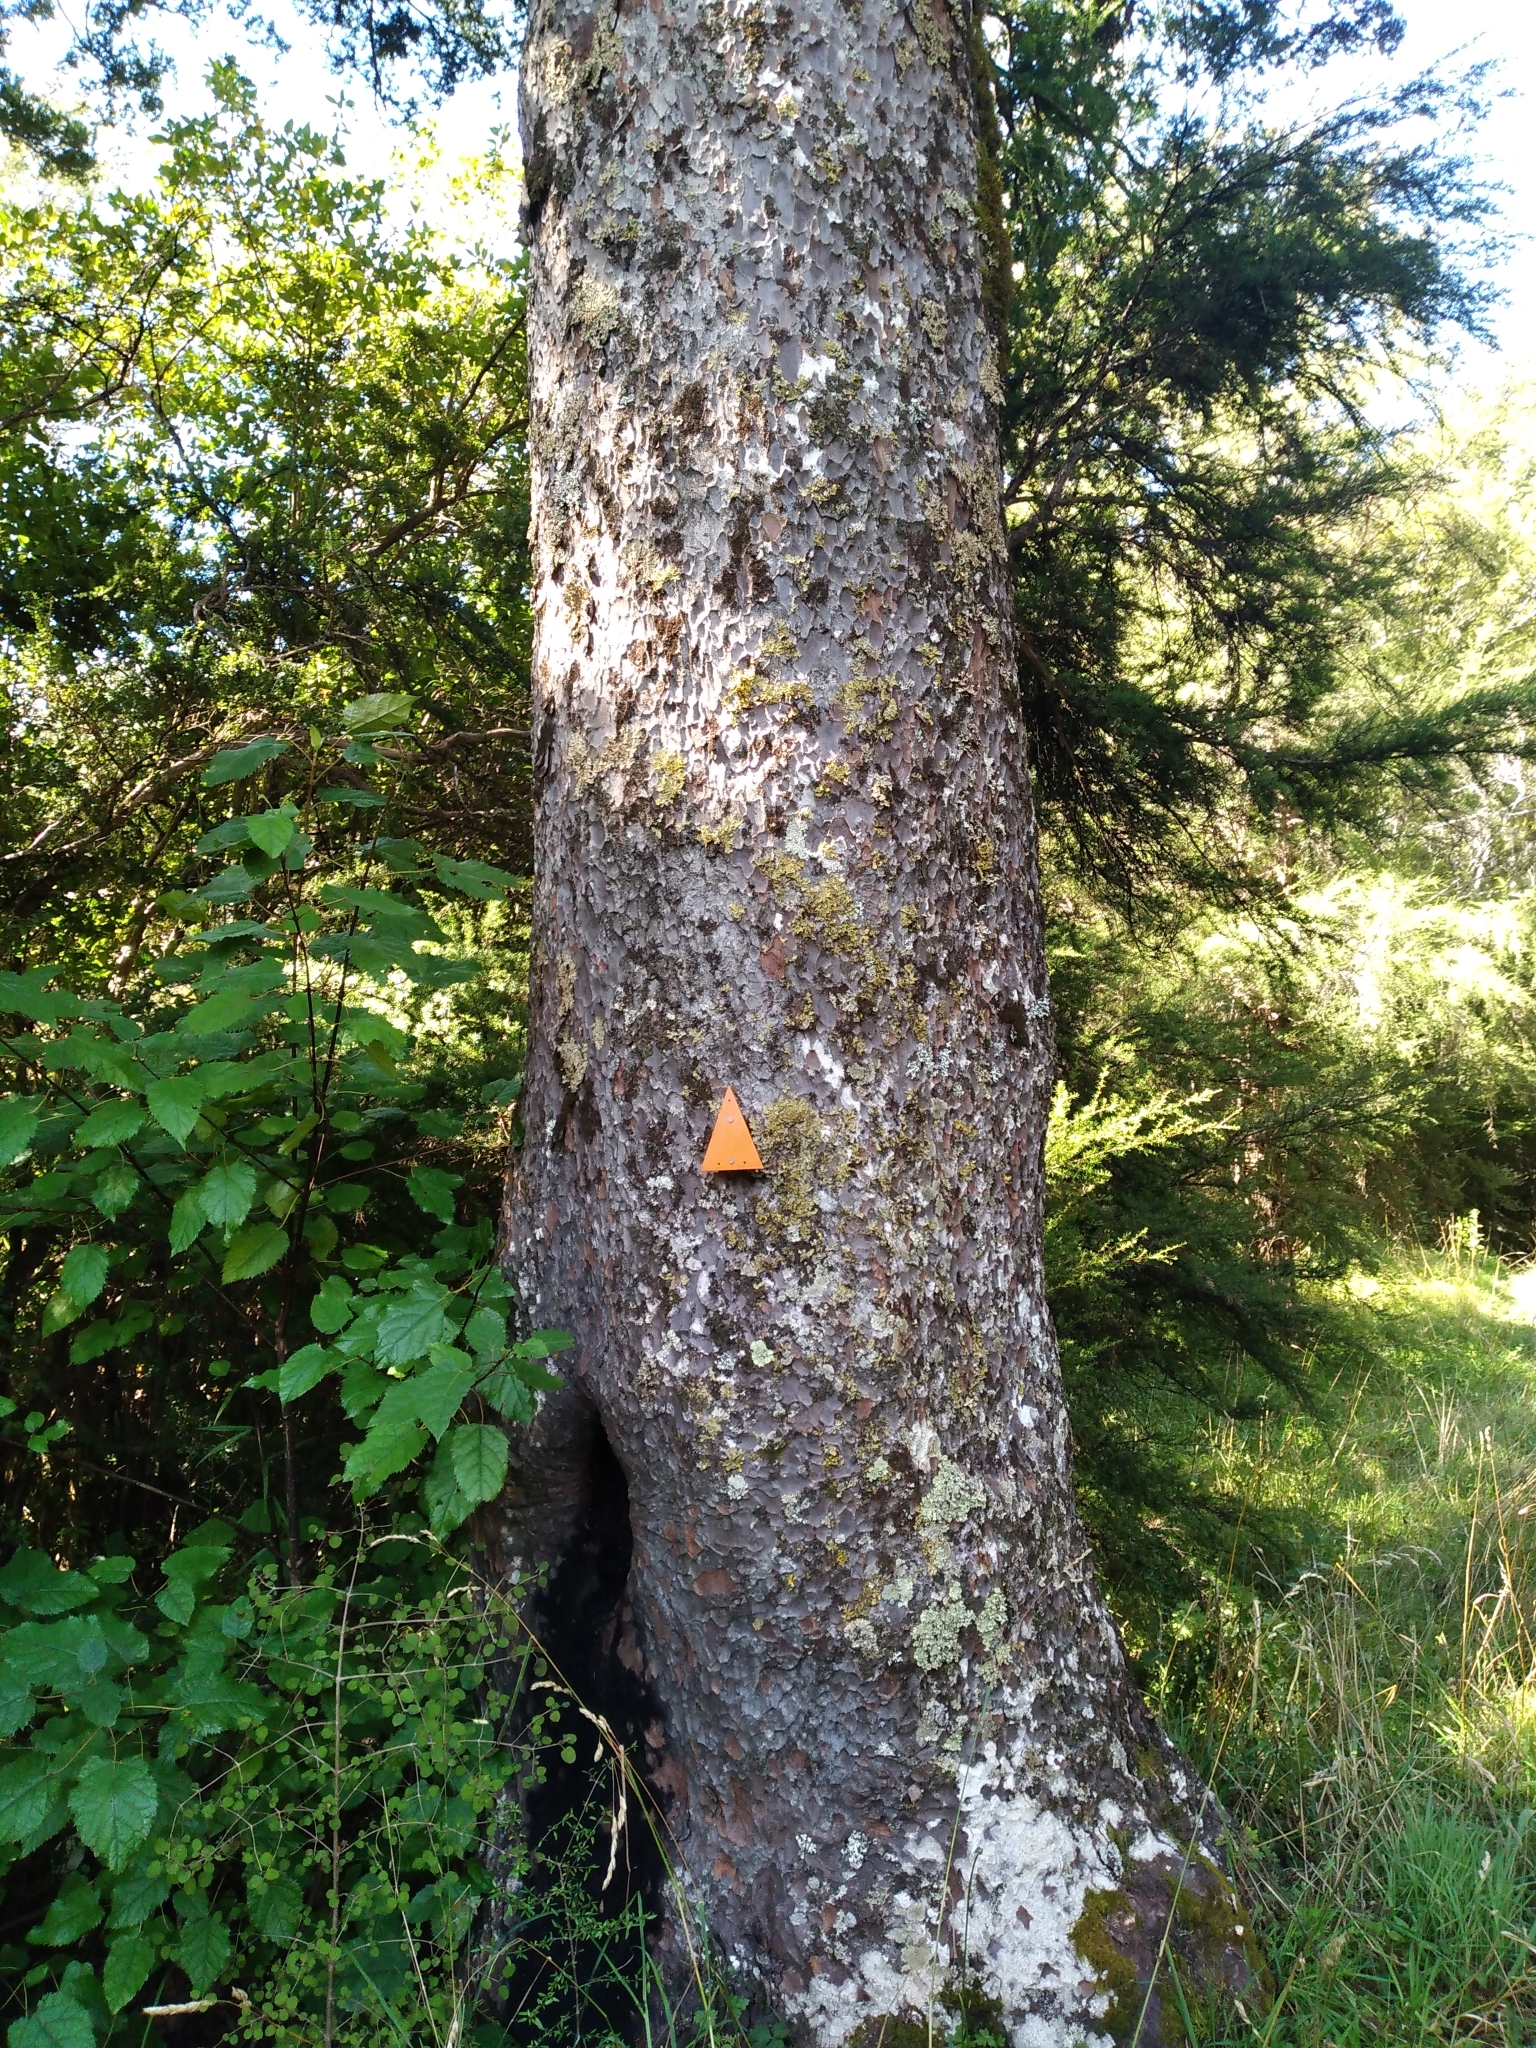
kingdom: Plantae
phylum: Tracheophyta
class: Pinopsida
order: Pinales
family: Podocarpaceae
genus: Prumnopitys
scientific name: Prumnopitys taxifolia
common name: Matai
